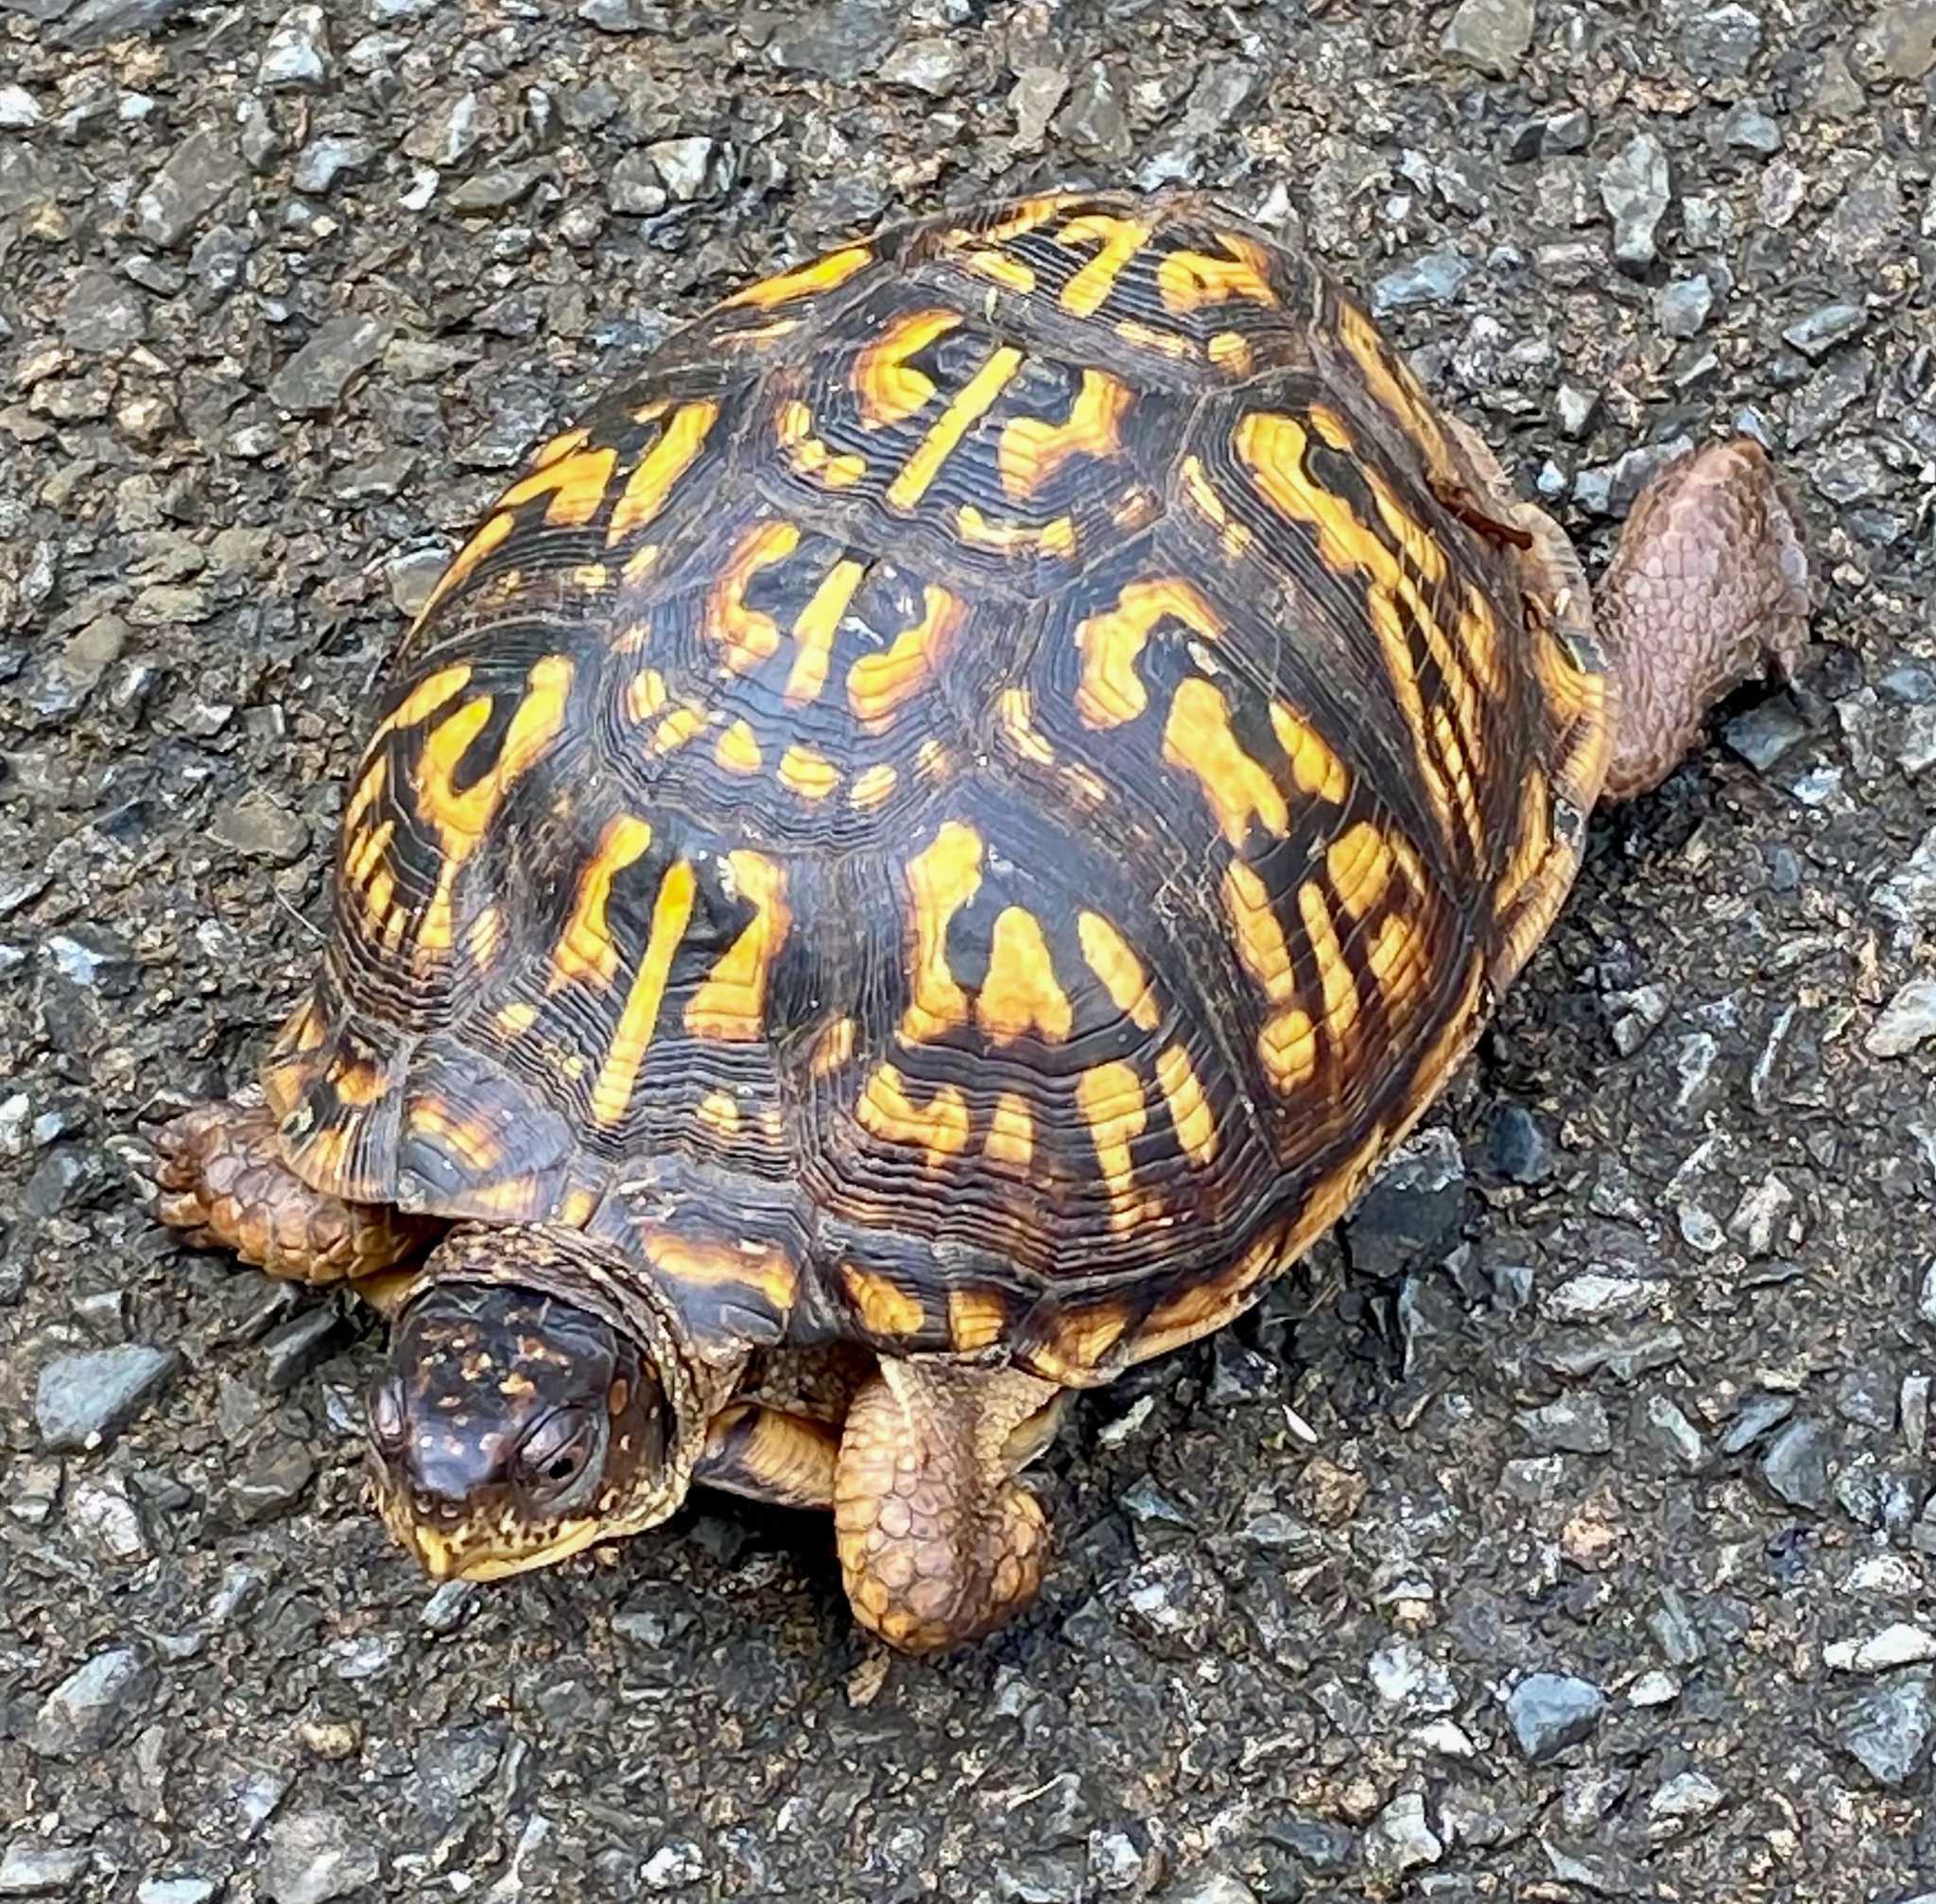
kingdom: Animalia
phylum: Chordata
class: Testudines
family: Emydidae
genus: Terrapene
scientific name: Terrapene carolina
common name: Common box turtle
